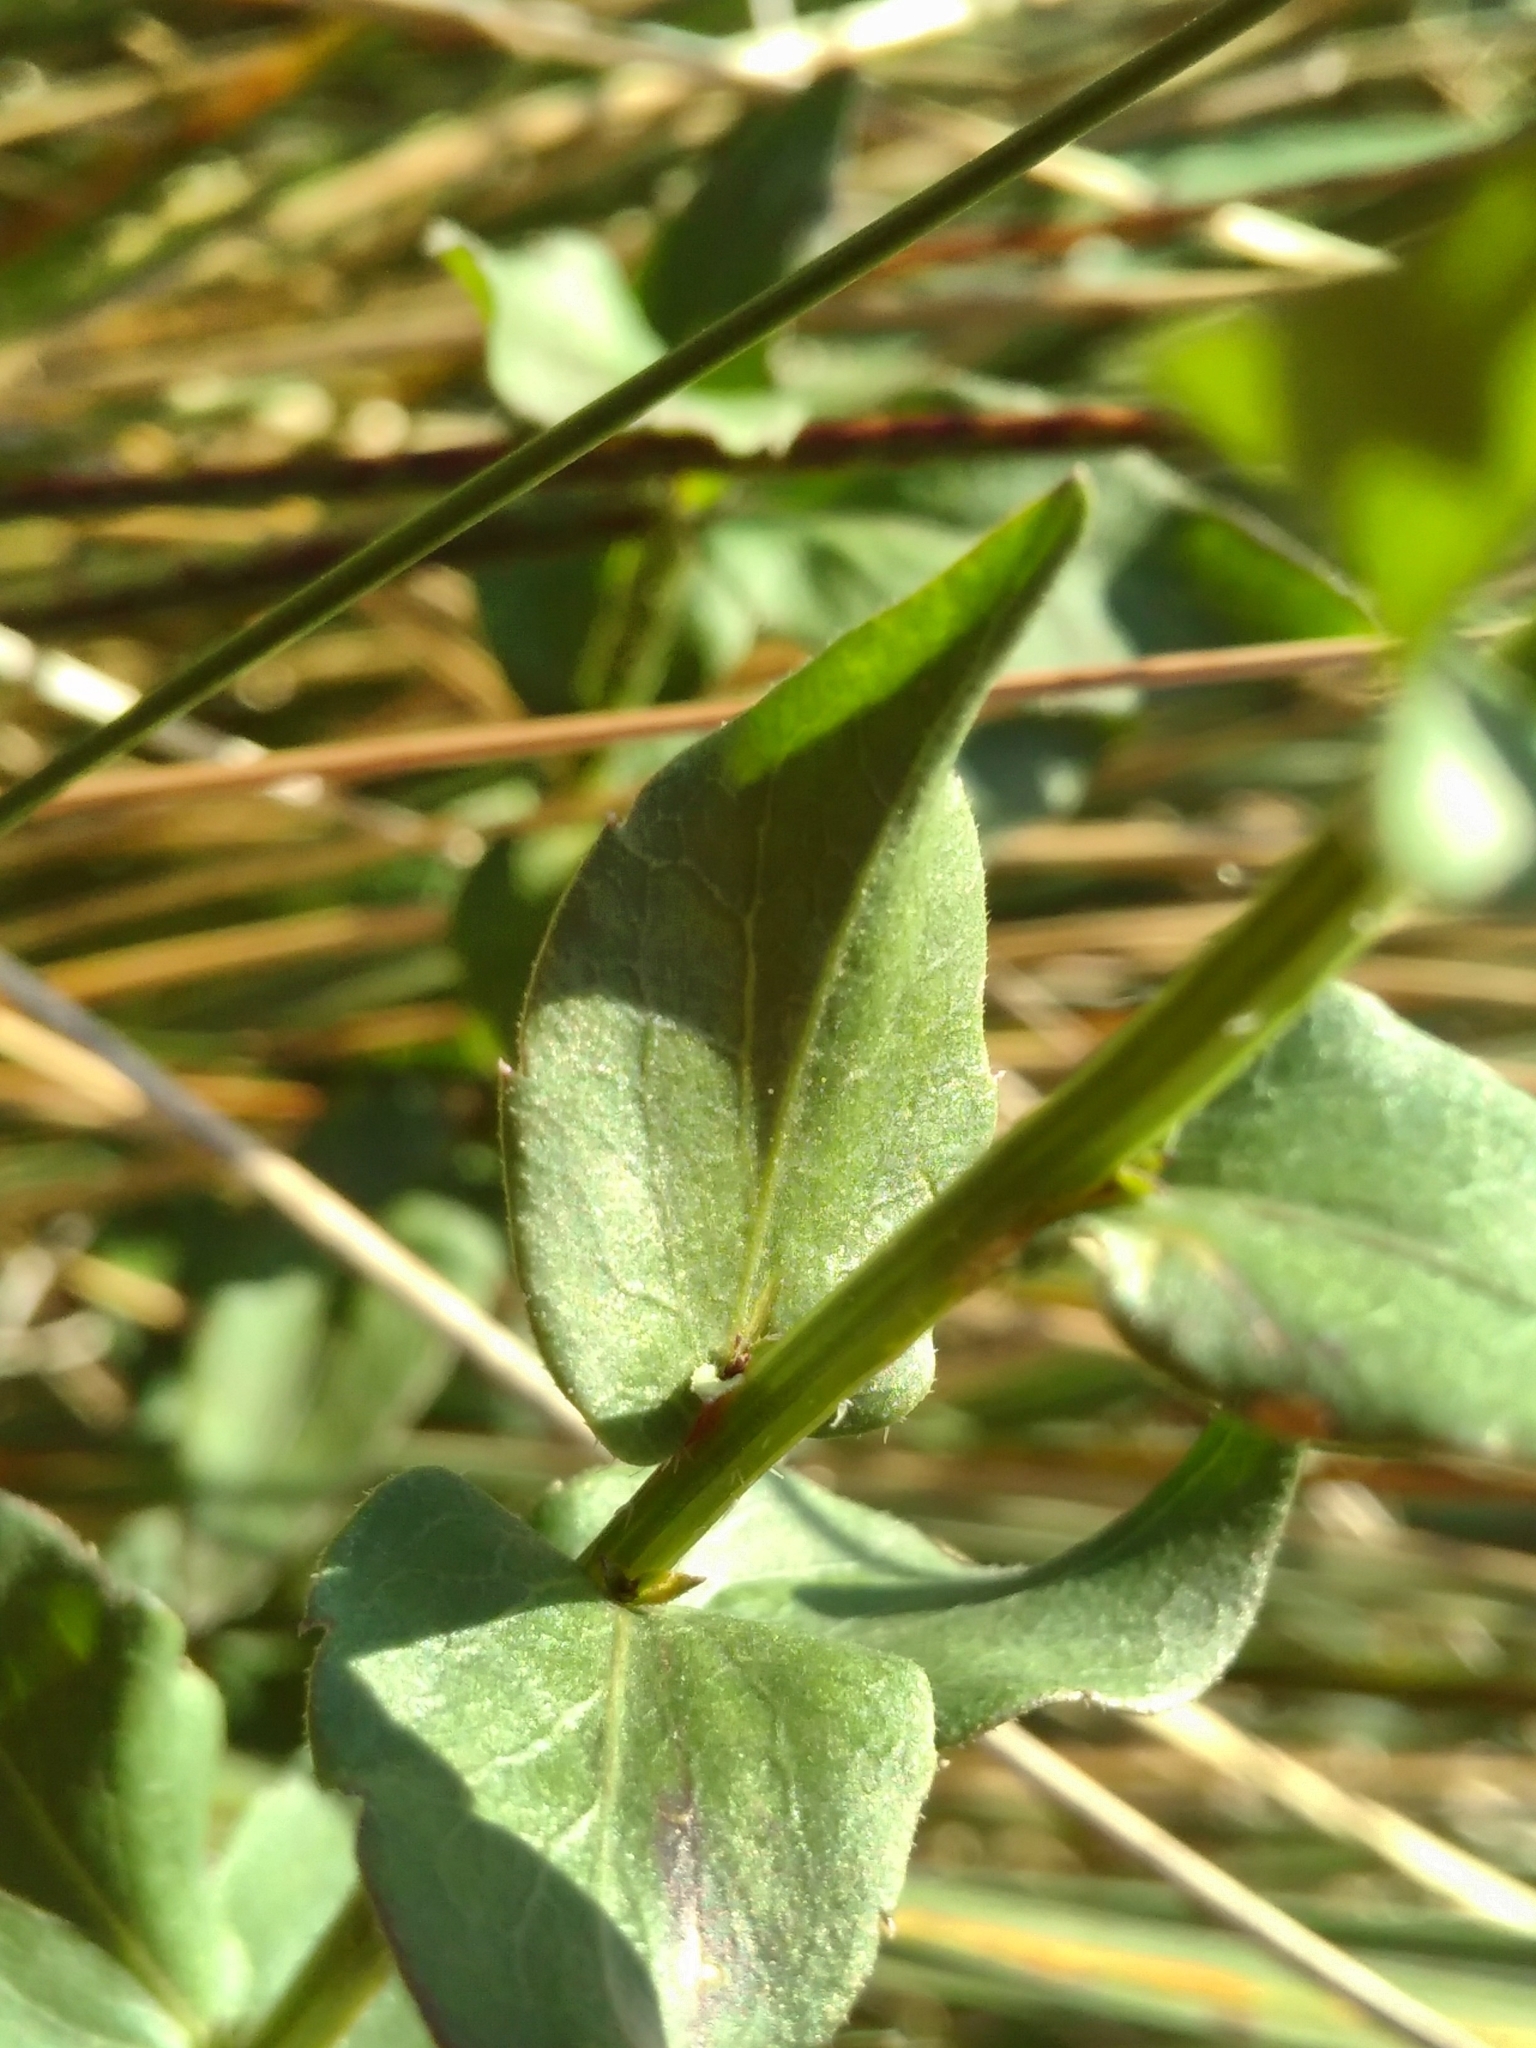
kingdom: Plantae
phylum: Tracheophyta
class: Magnoliopsida
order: Asterales
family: Campanulaceae
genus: Campanula
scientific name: Campanula precatoria
